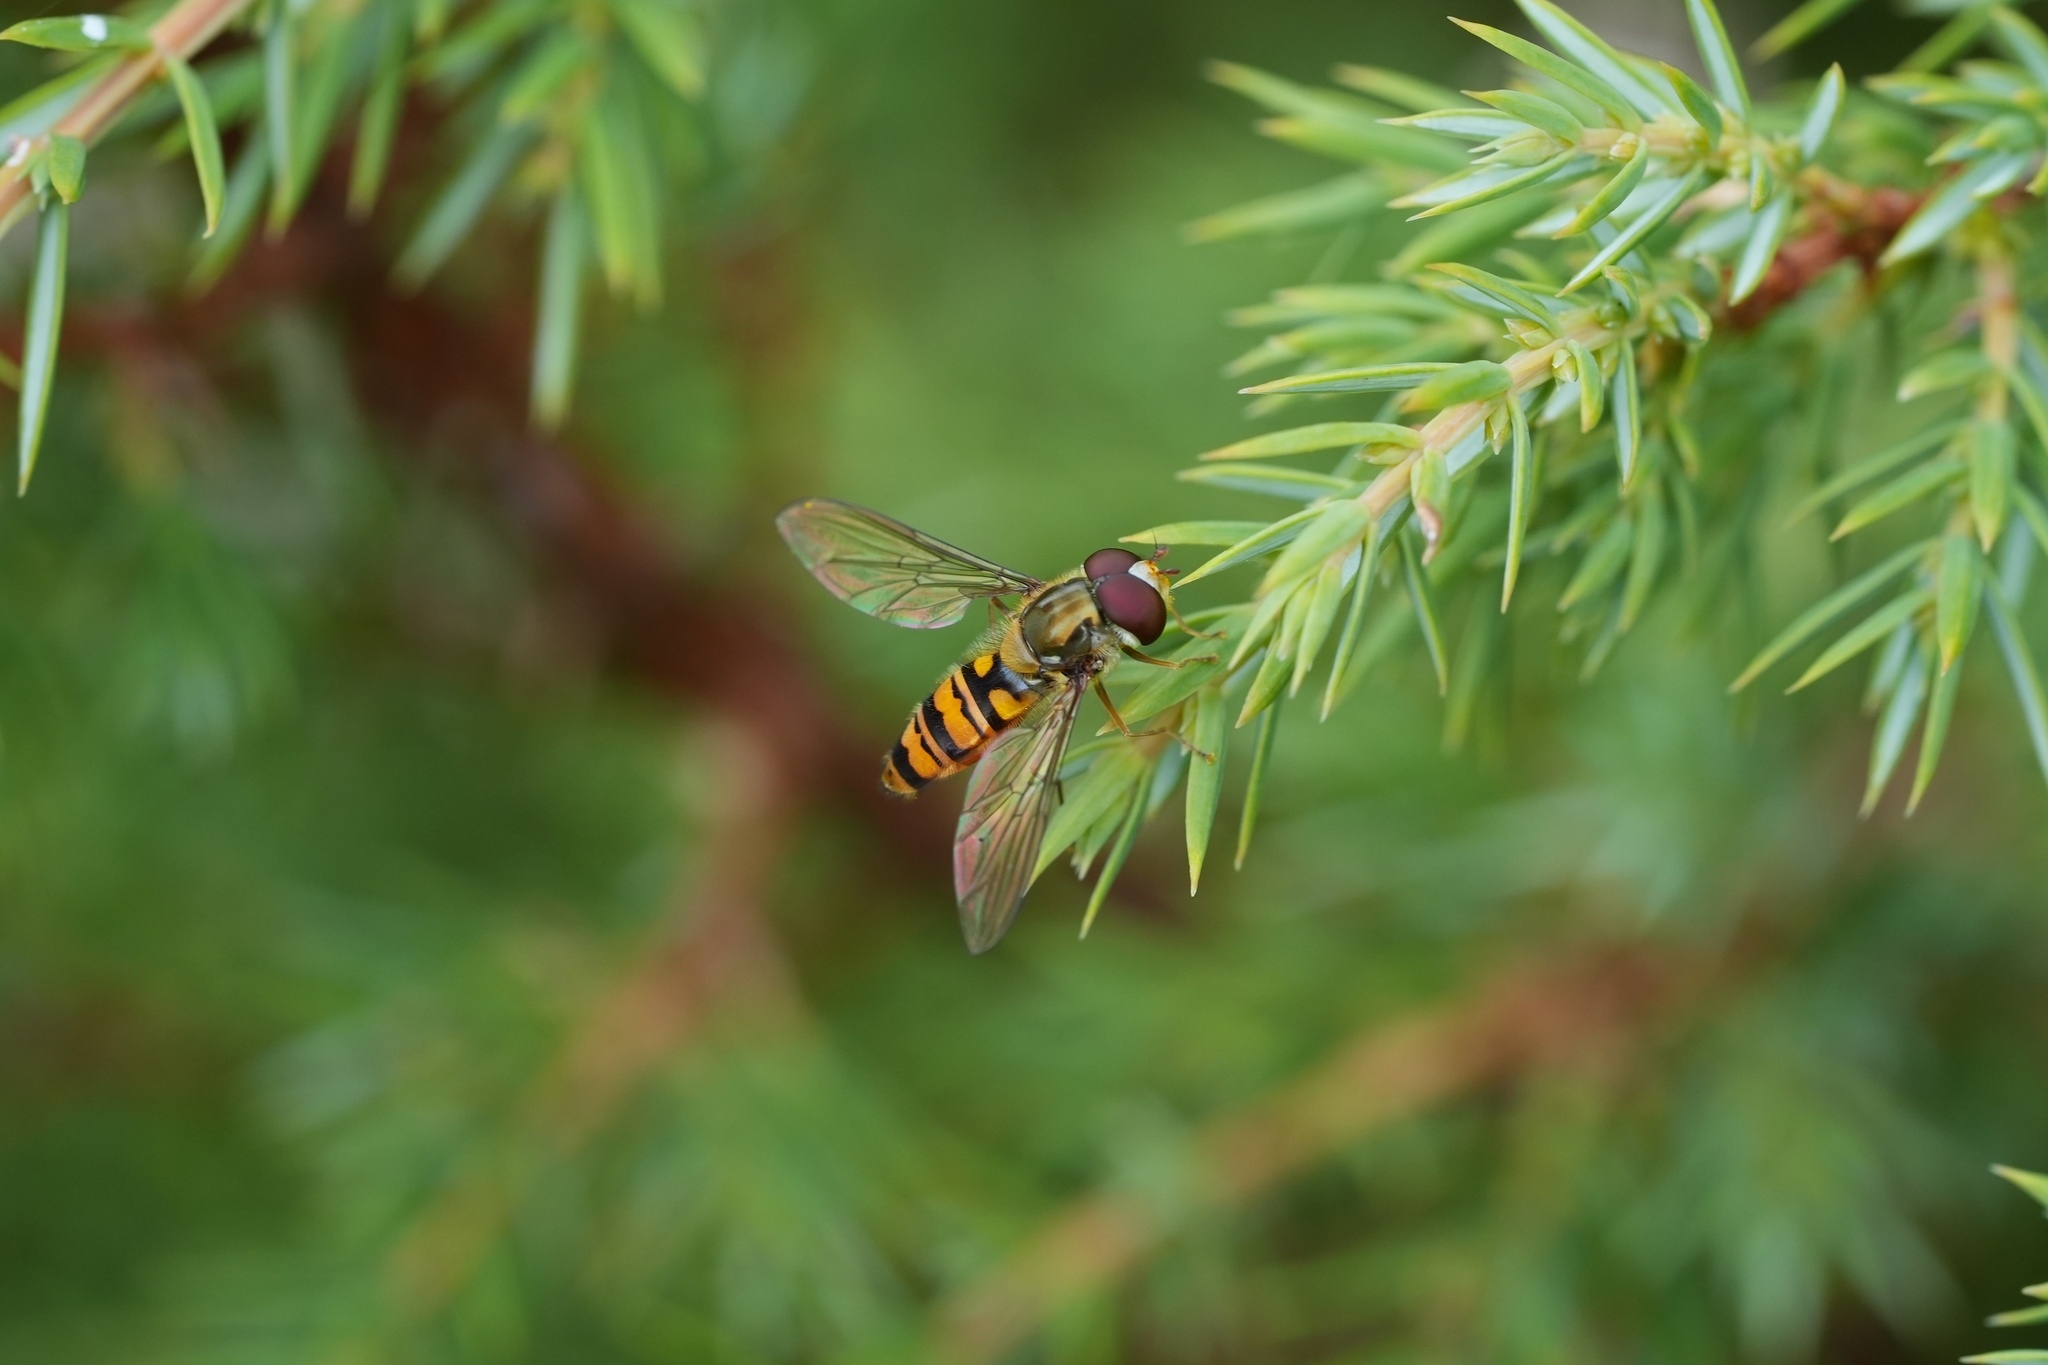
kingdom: Animalia
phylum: Arthropoda
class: Insecta
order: Diptera
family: Syrphidae
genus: Episyrphus
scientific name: Episyrphus balteatus
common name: Marmalade hoverfly
